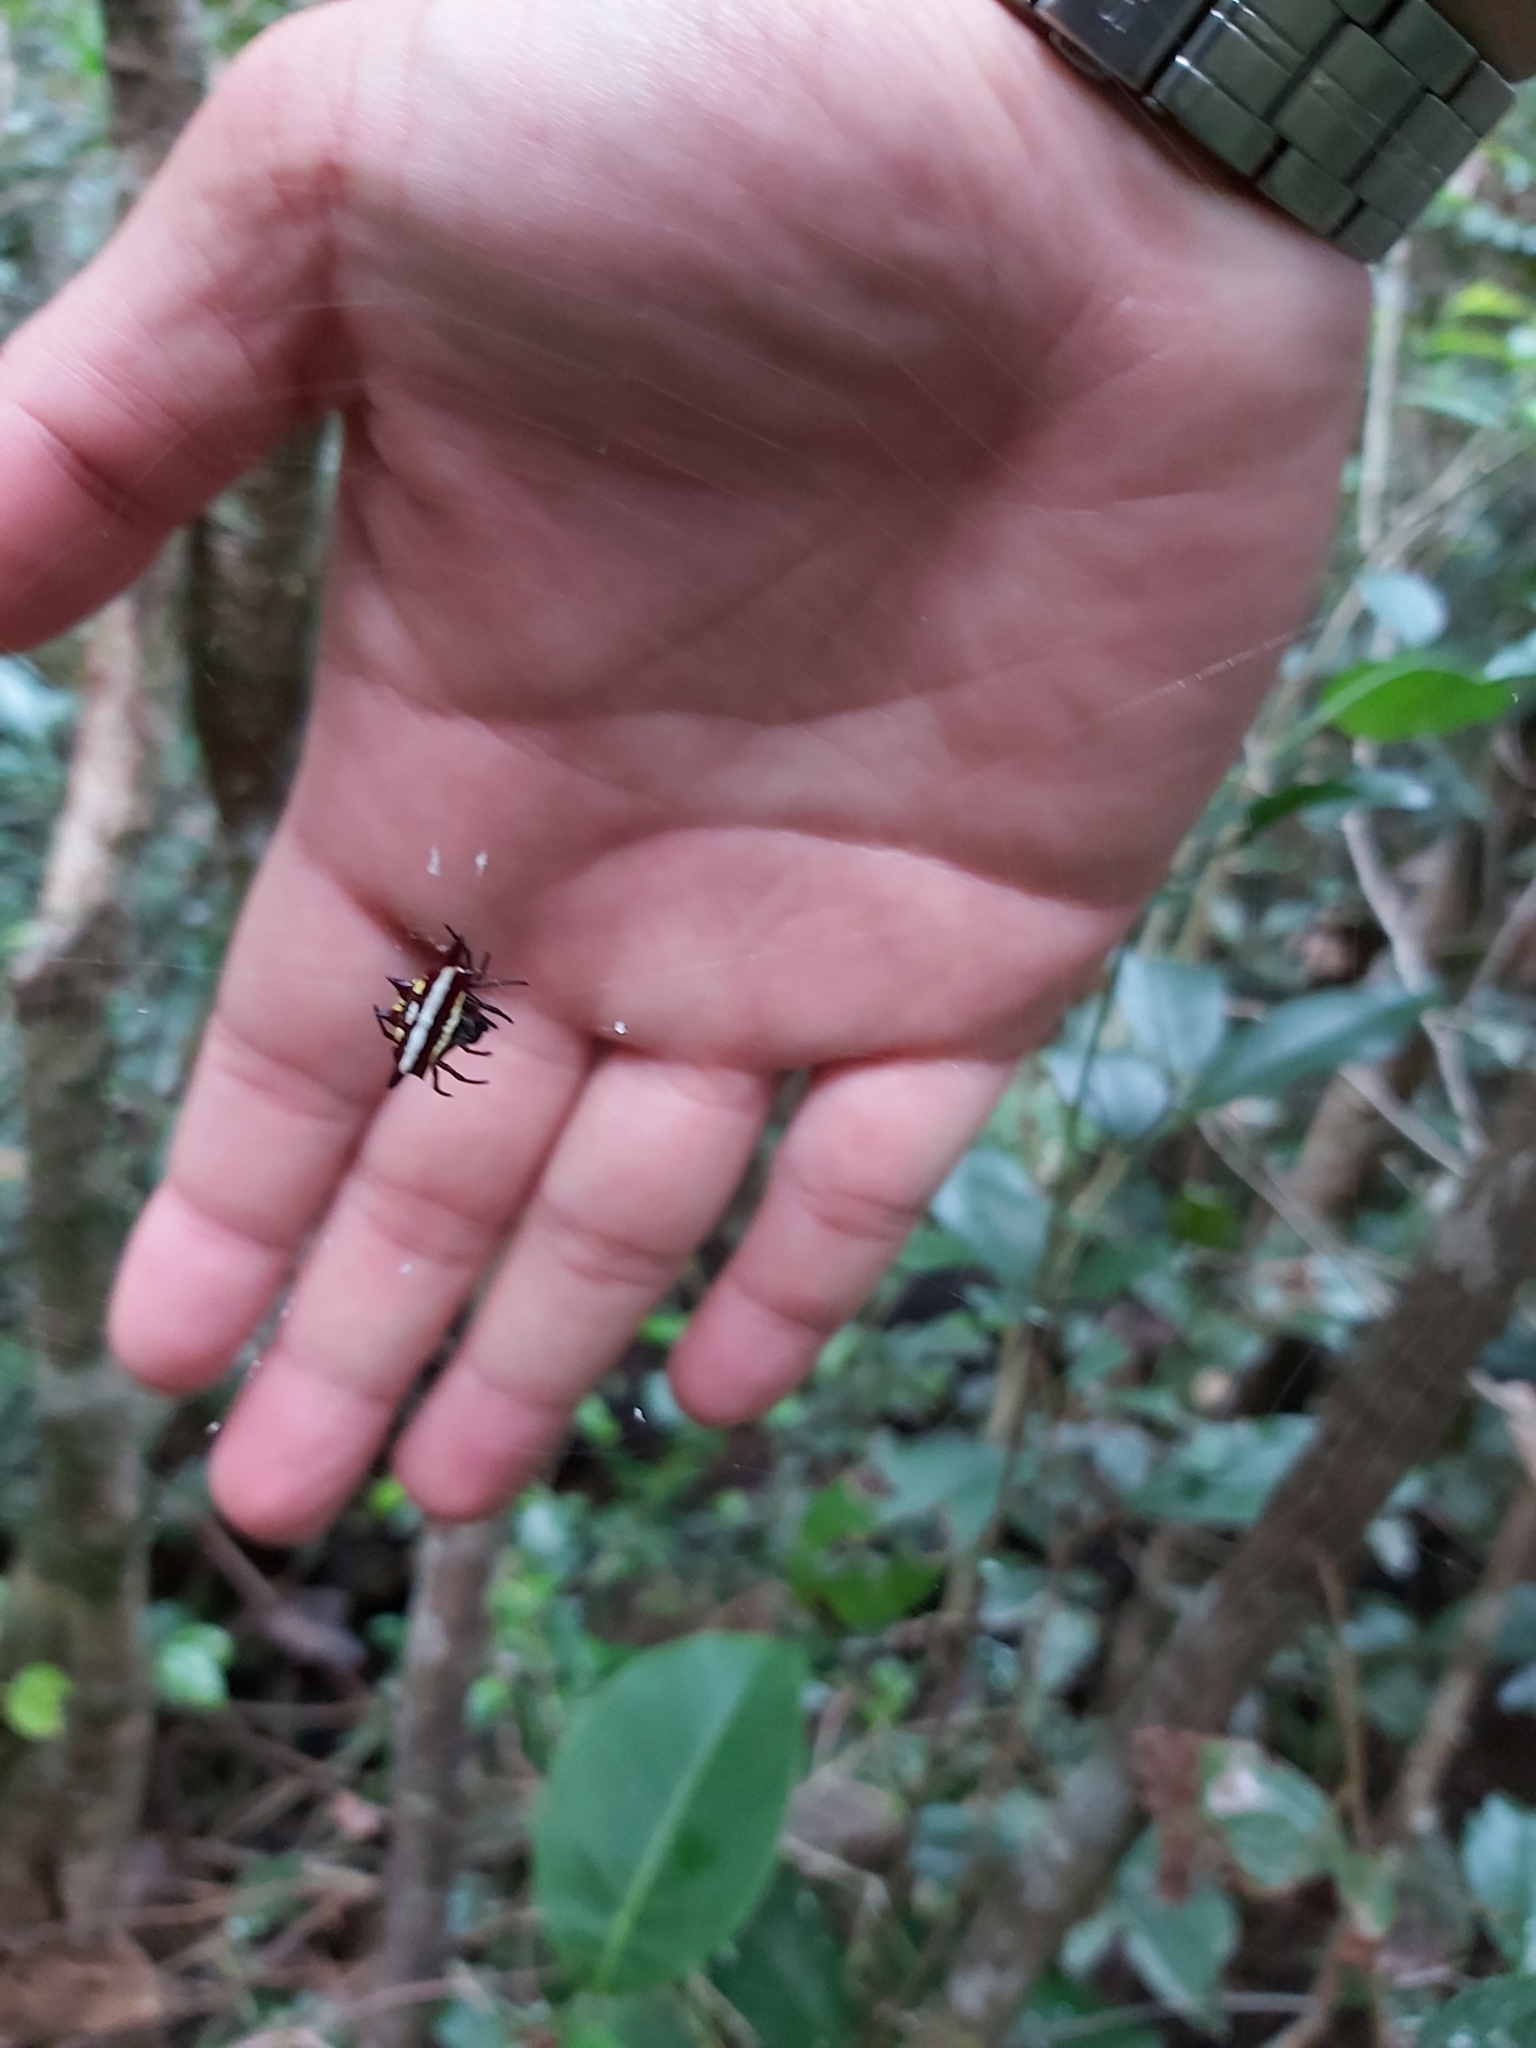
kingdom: Animalia
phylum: Arthropoda
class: Arachnida
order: Araneae
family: Araneidae
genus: Gasteracantha
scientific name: Gasteracantha fornicata
